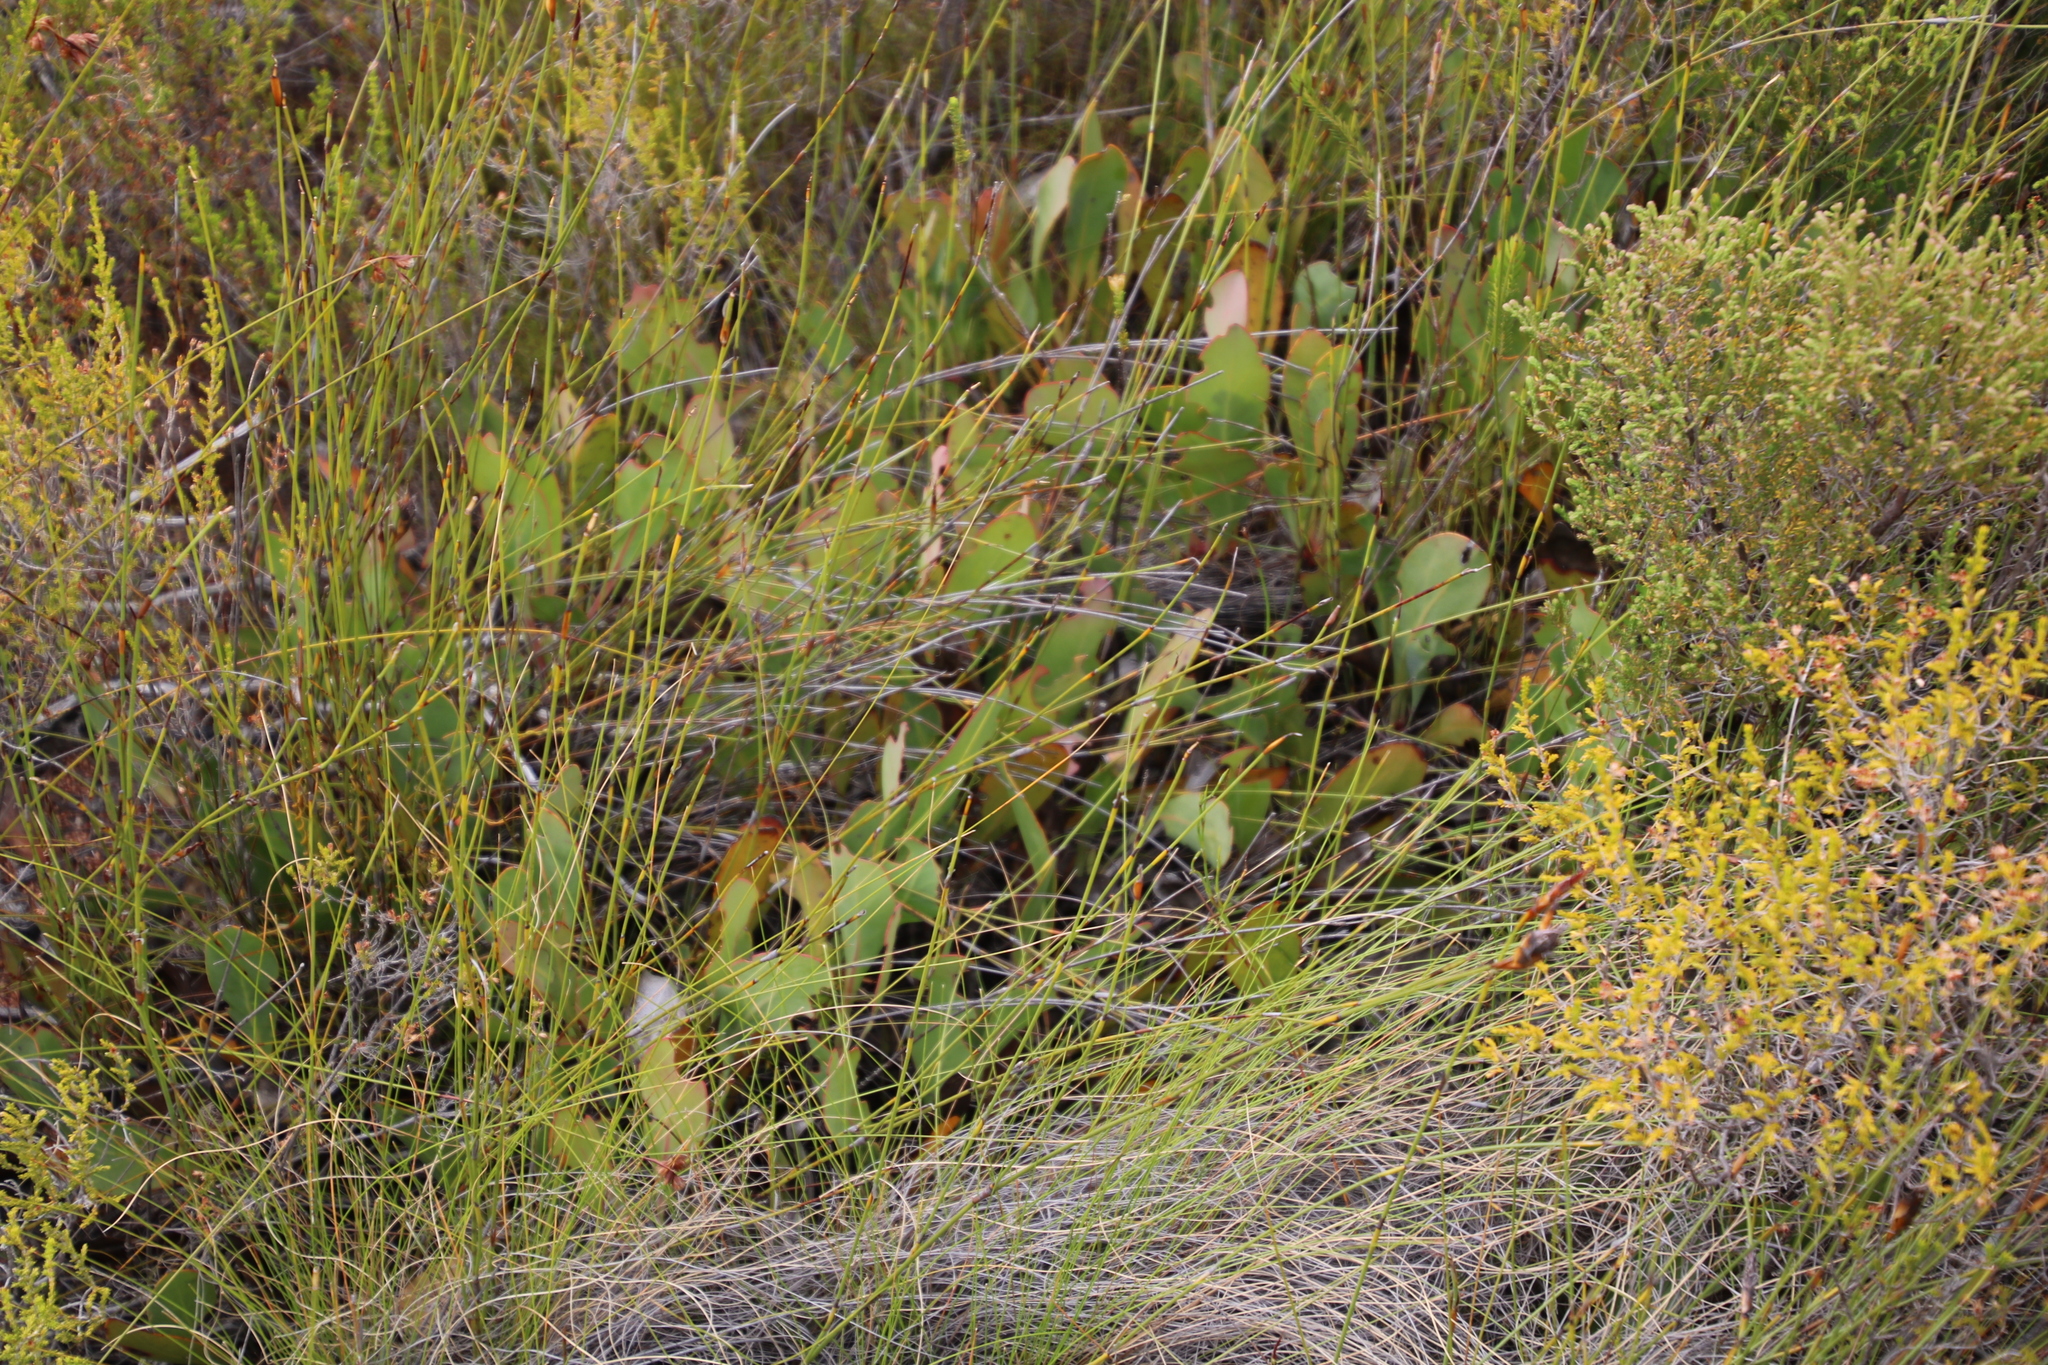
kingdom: Plantae
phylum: Tracheophyta
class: Magnoliopsida
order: Proteales
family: Proteaceae
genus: Protea
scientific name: Protea acaulos
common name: Common ground sugarbush
